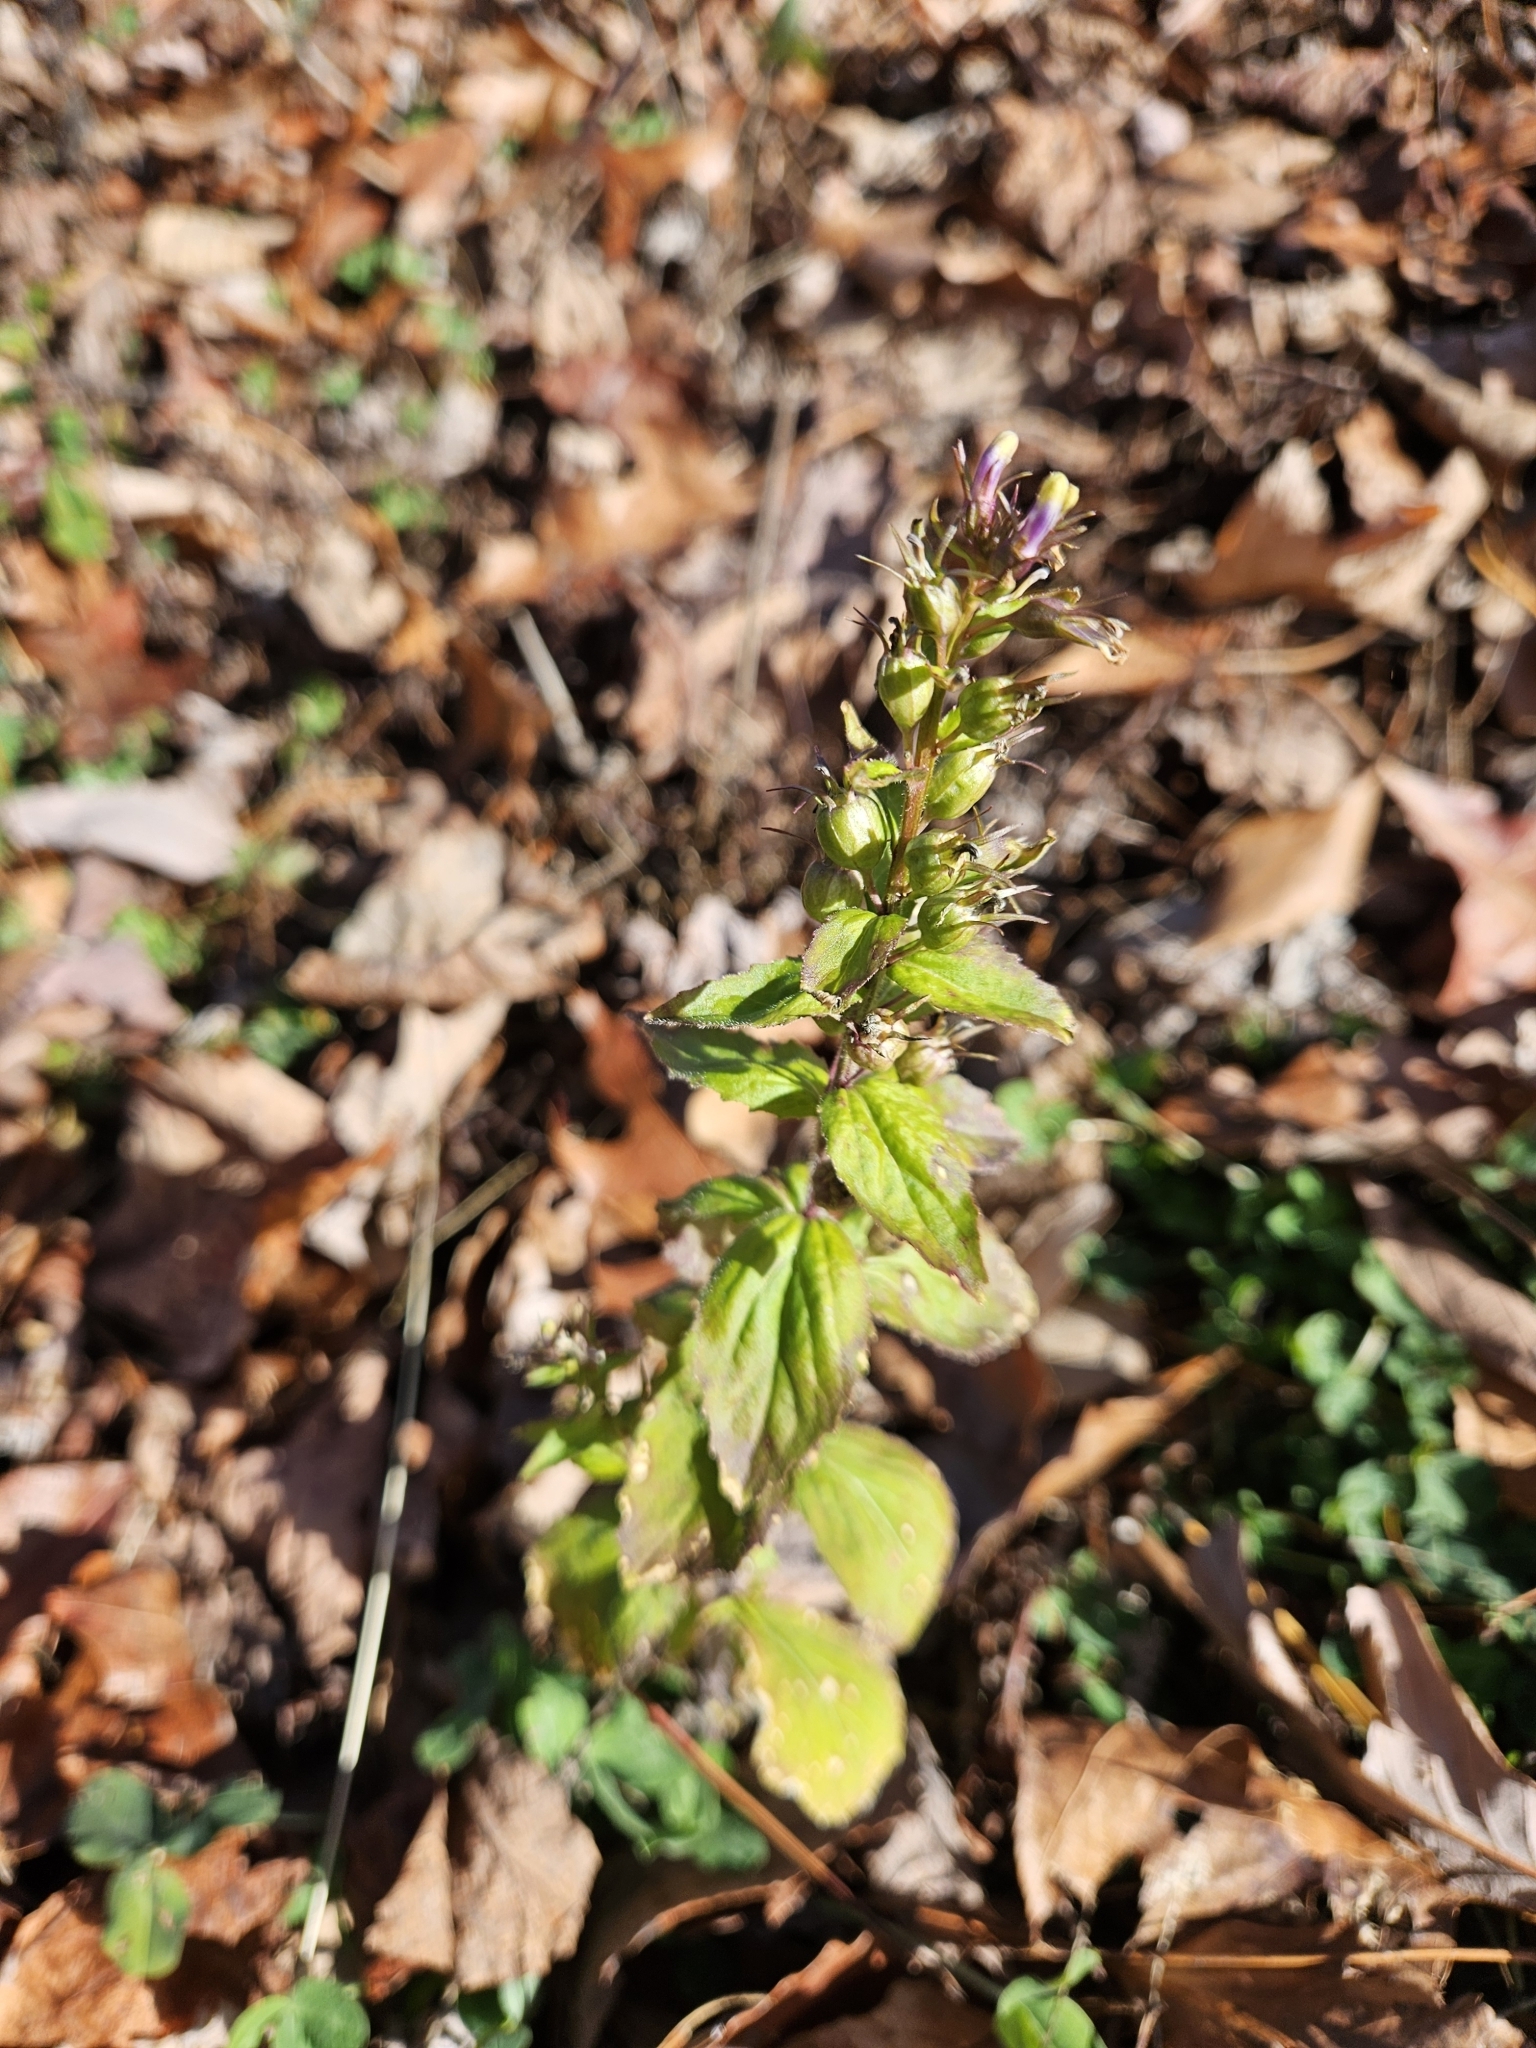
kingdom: Plantae
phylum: Tracheophyta
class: Magnoliopsida
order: Asterales
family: Campanulaceae
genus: Lobelia
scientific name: Lobelia inflata
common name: Indian tobacco
